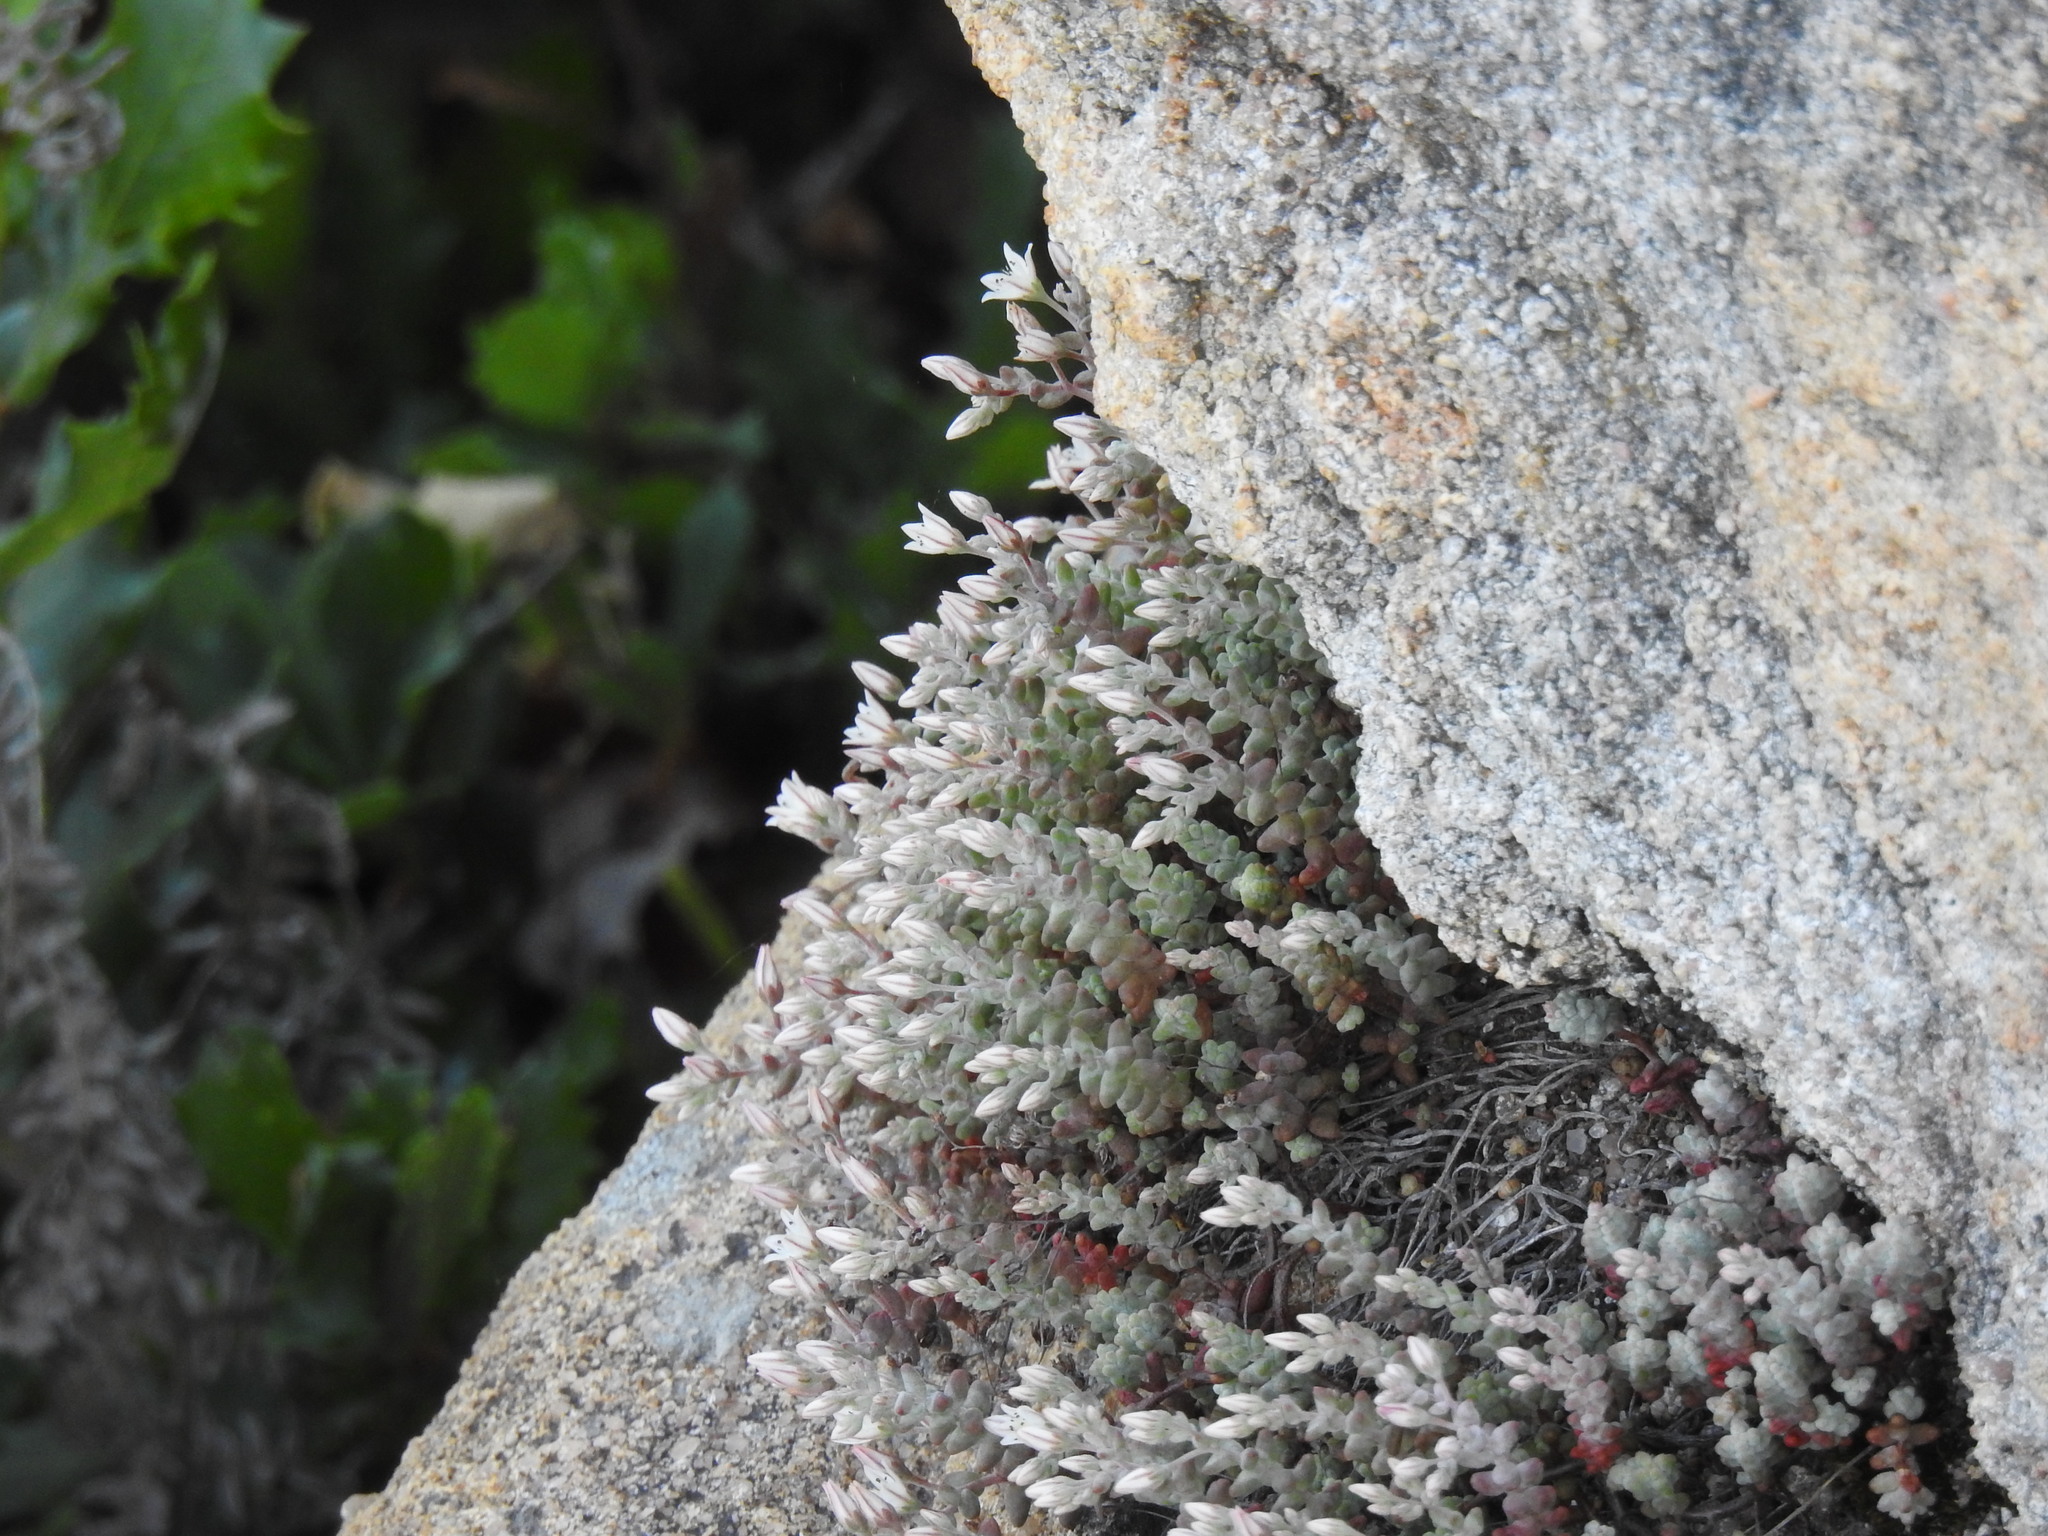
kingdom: Plantae
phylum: Tracheophyta
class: Magnoliopsida
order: Saxifragales
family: Crassulaceae
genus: Sedum
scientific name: Sedum brevifolium
